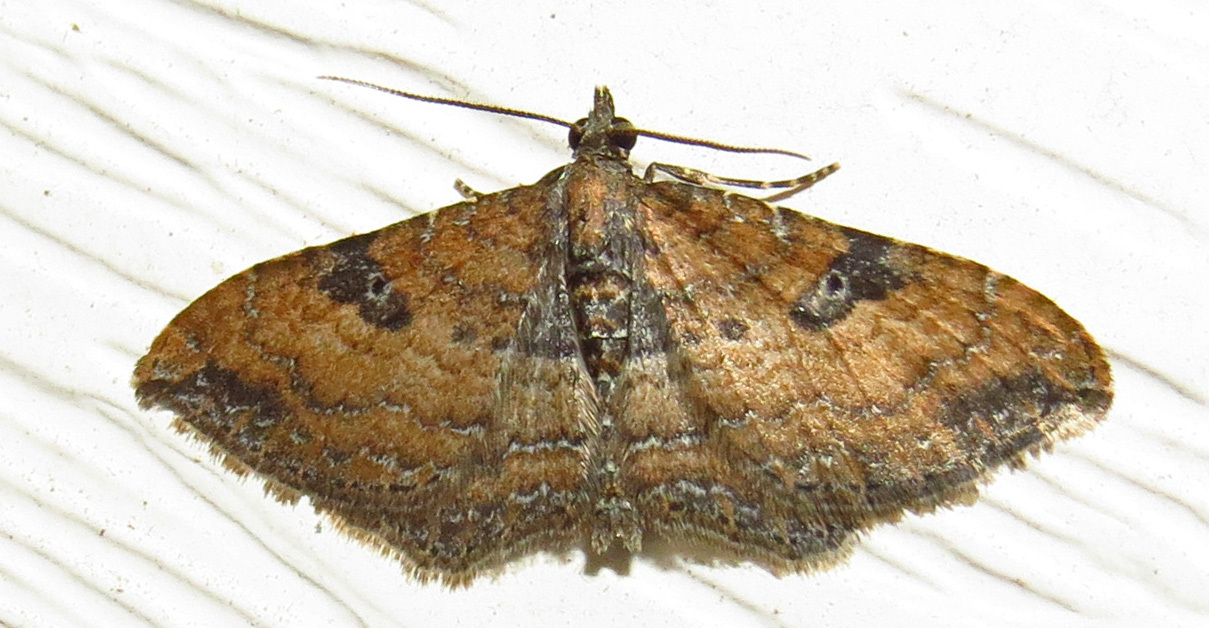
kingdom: Animalia
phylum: Arthropoda
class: Insecta
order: Lepidoptera
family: Geometridae
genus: Orthonama
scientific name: Orthonama obstipata
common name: The gem
